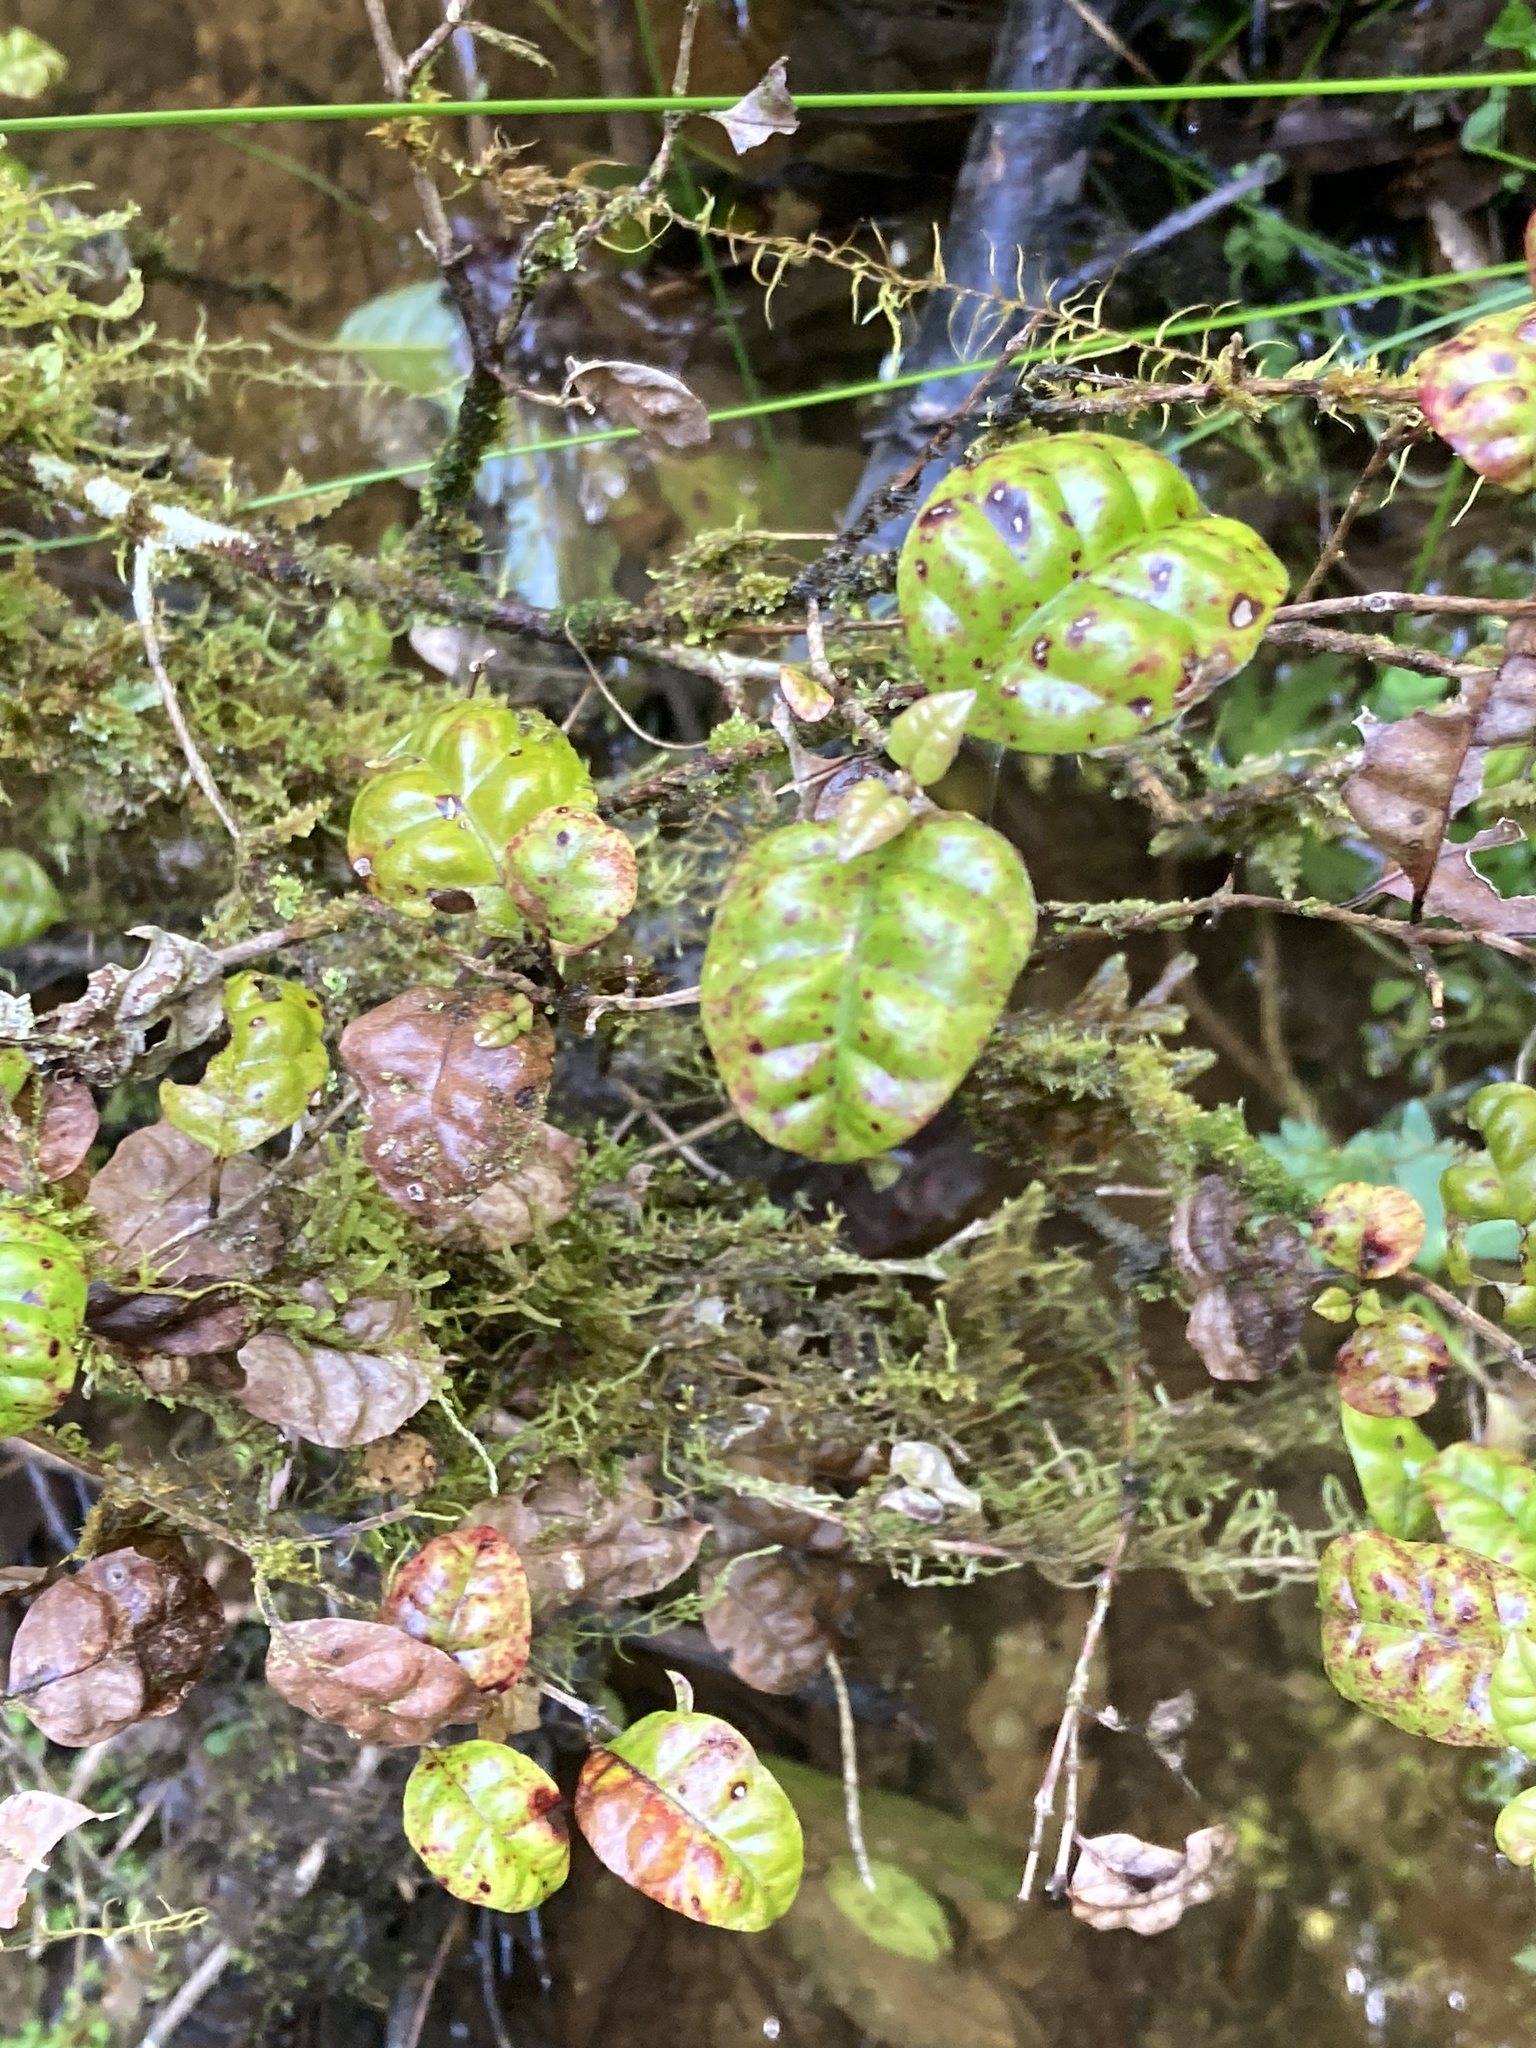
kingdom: Plantae
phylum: Tracheophyta
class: Magnoliopsida
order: Myrtales
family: Myrtaceae
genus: Lophomyrtus
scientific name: Lophomyrtus bullata
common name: Rama rama
